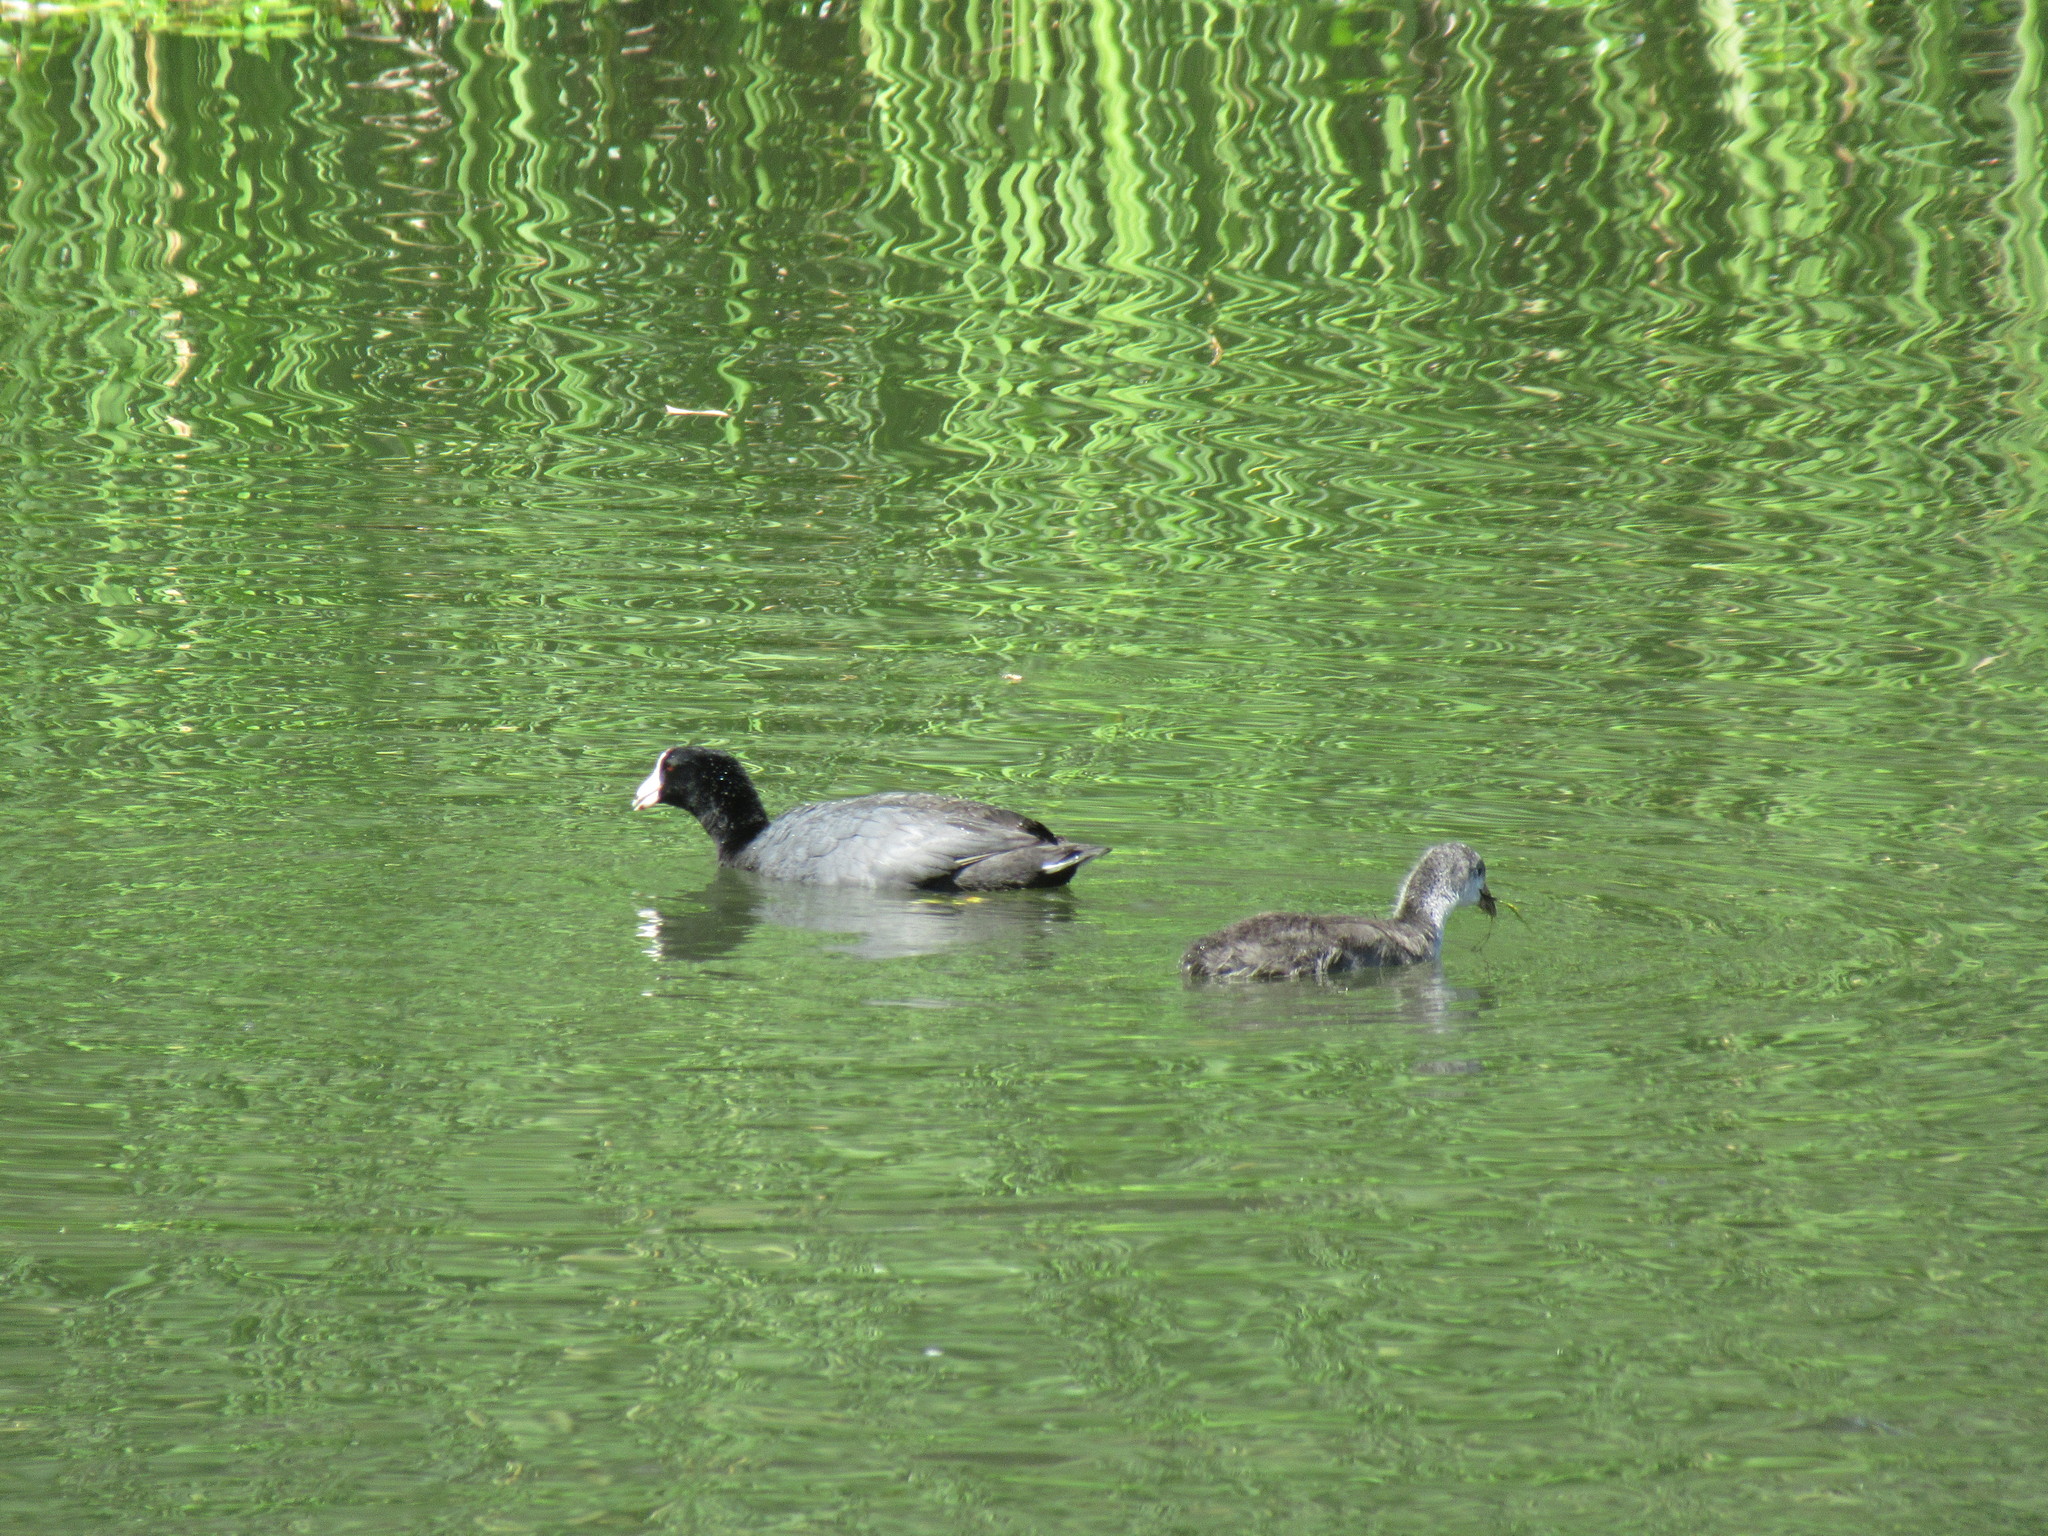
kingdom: Animalia
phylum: Chordata
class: Aves
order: Gruiformes
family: Rallidae
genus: Fulica
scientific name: Fulica americana
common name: American coot
